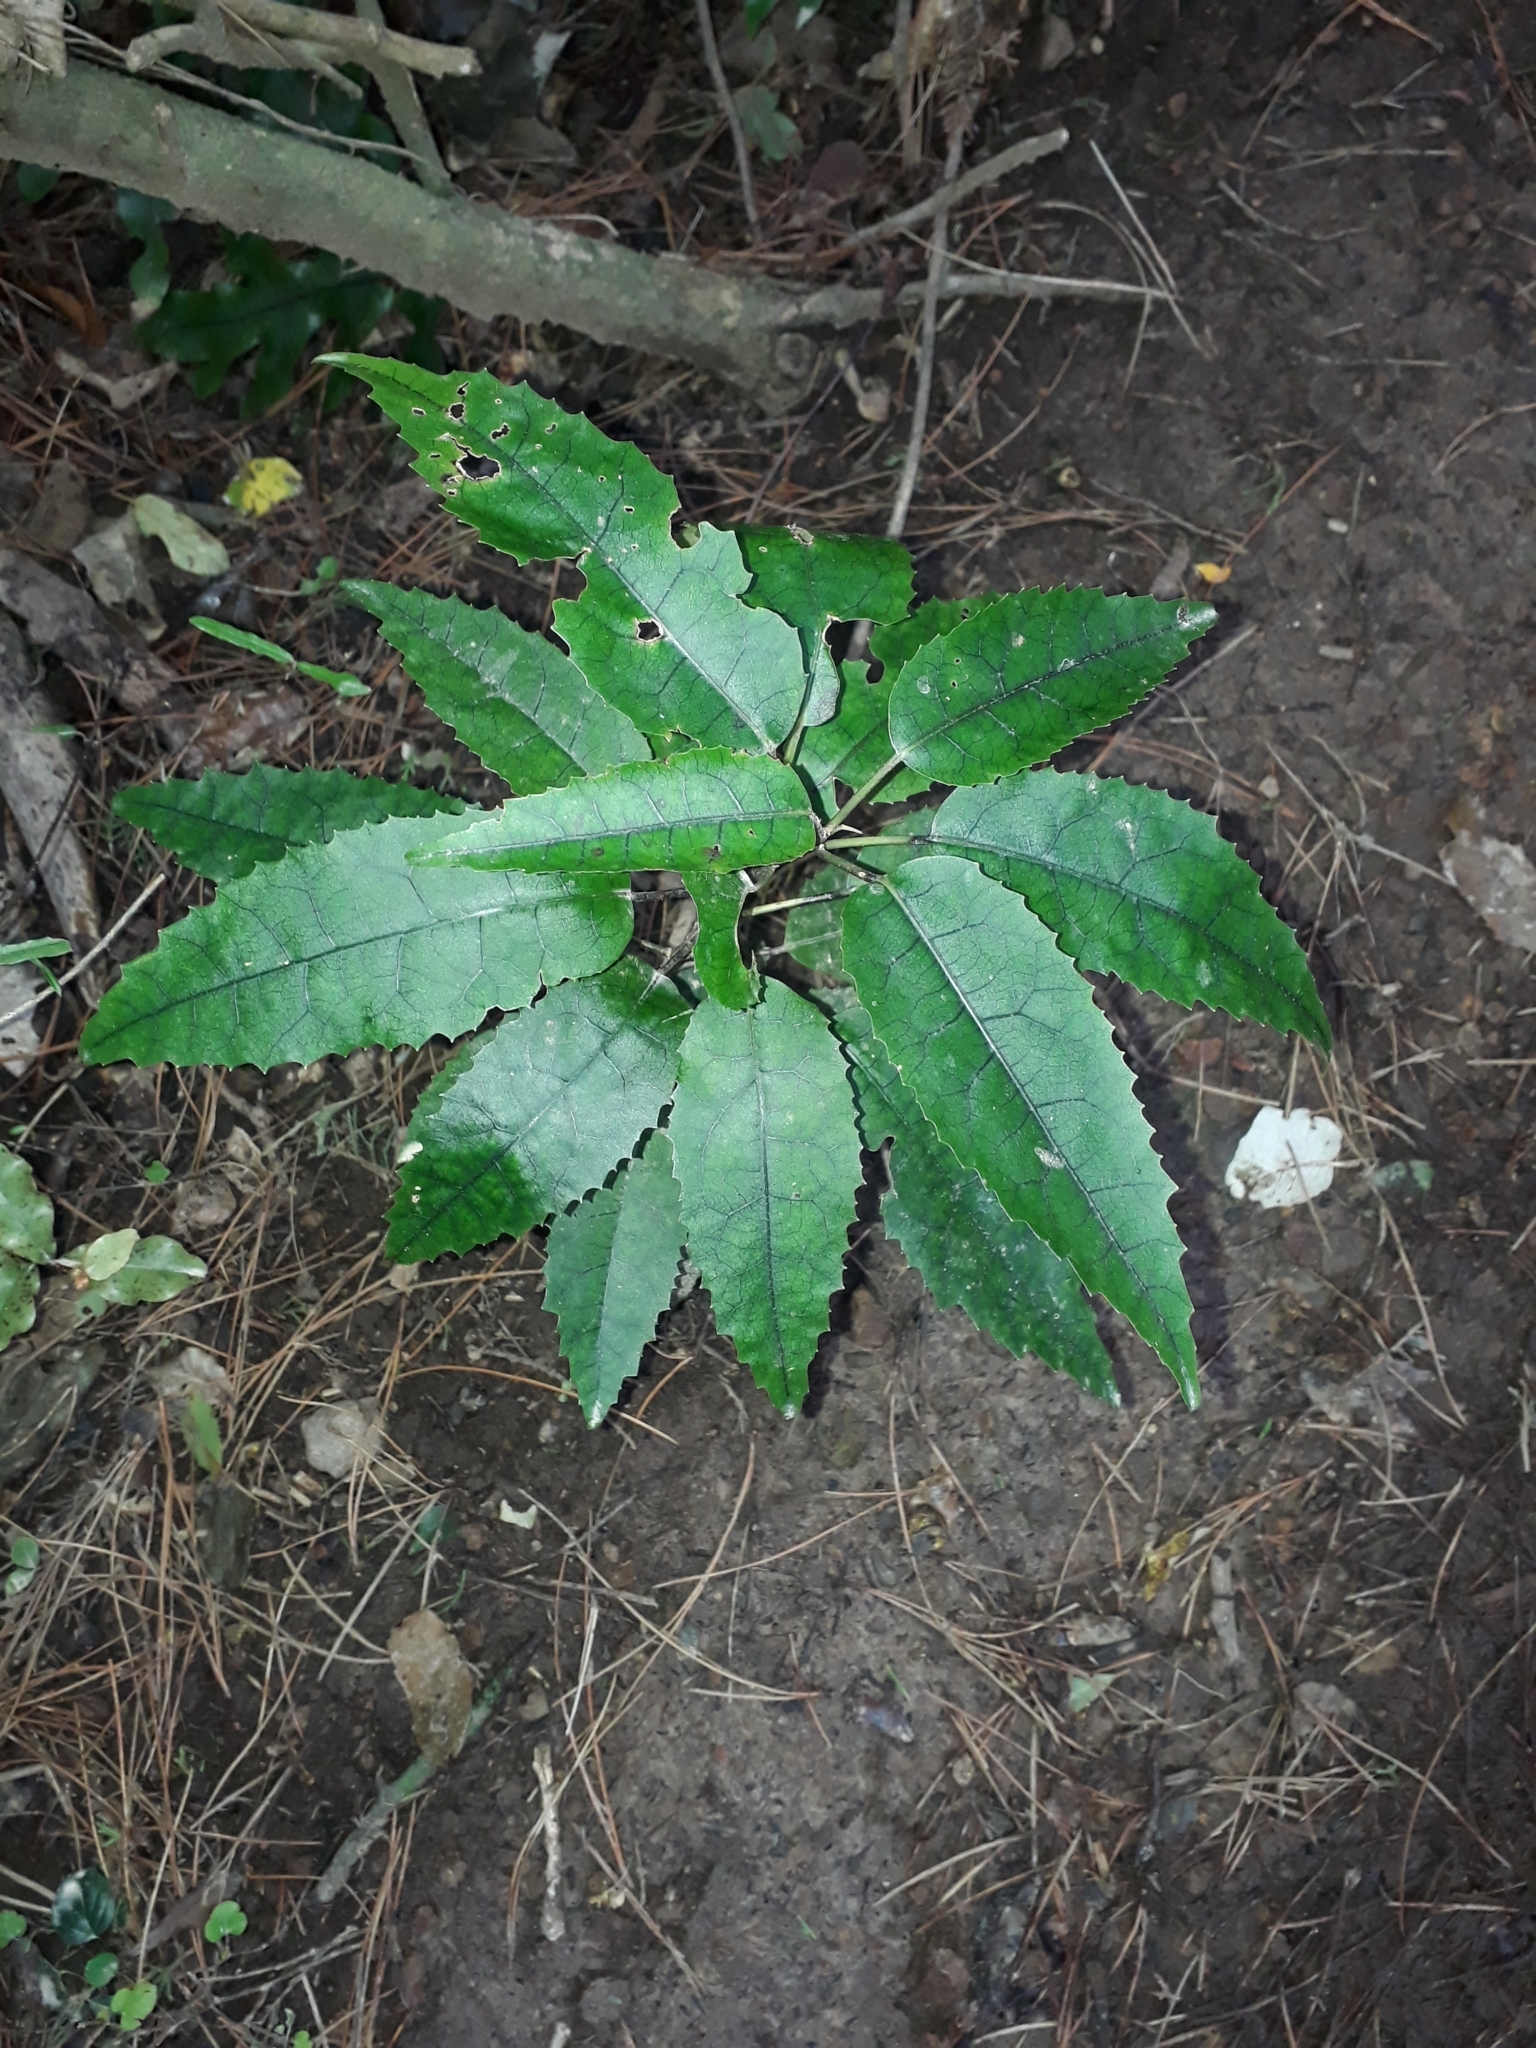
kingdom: Plantae
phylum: Tracheophyta
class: Magnoliopsida
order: Malvales
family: Malvaceae
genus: Hoheria
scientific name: Hoheria populnea
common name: Lacebark
